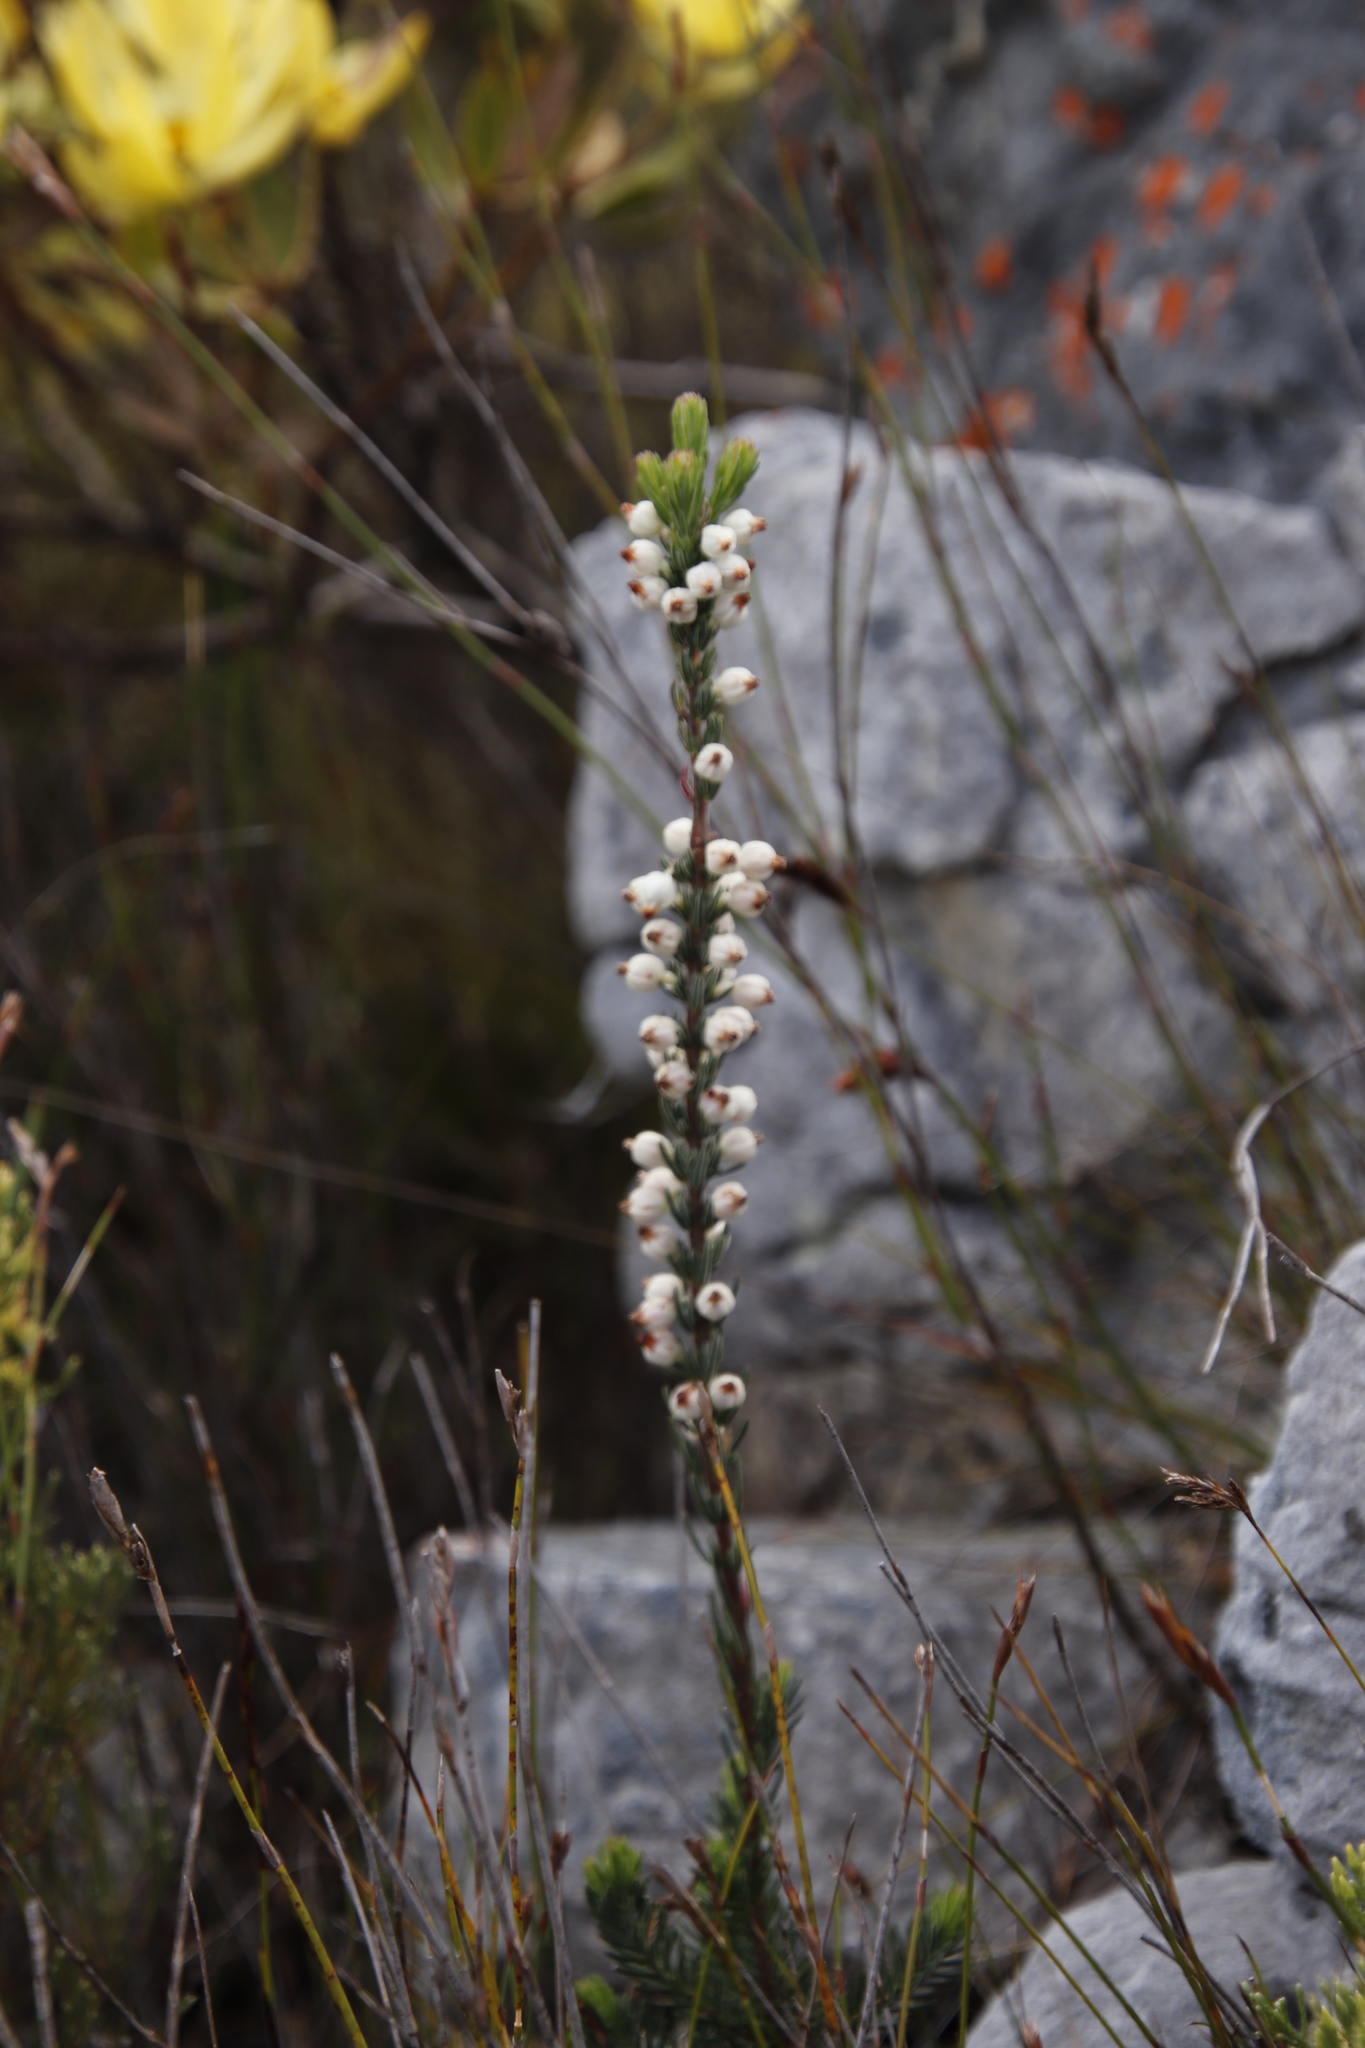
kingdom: Plantae
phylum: Tracheophyta
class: Magnoliopsida
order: Ericales
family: Ericaceae
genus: Erica
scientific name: Erica grisbrookii
